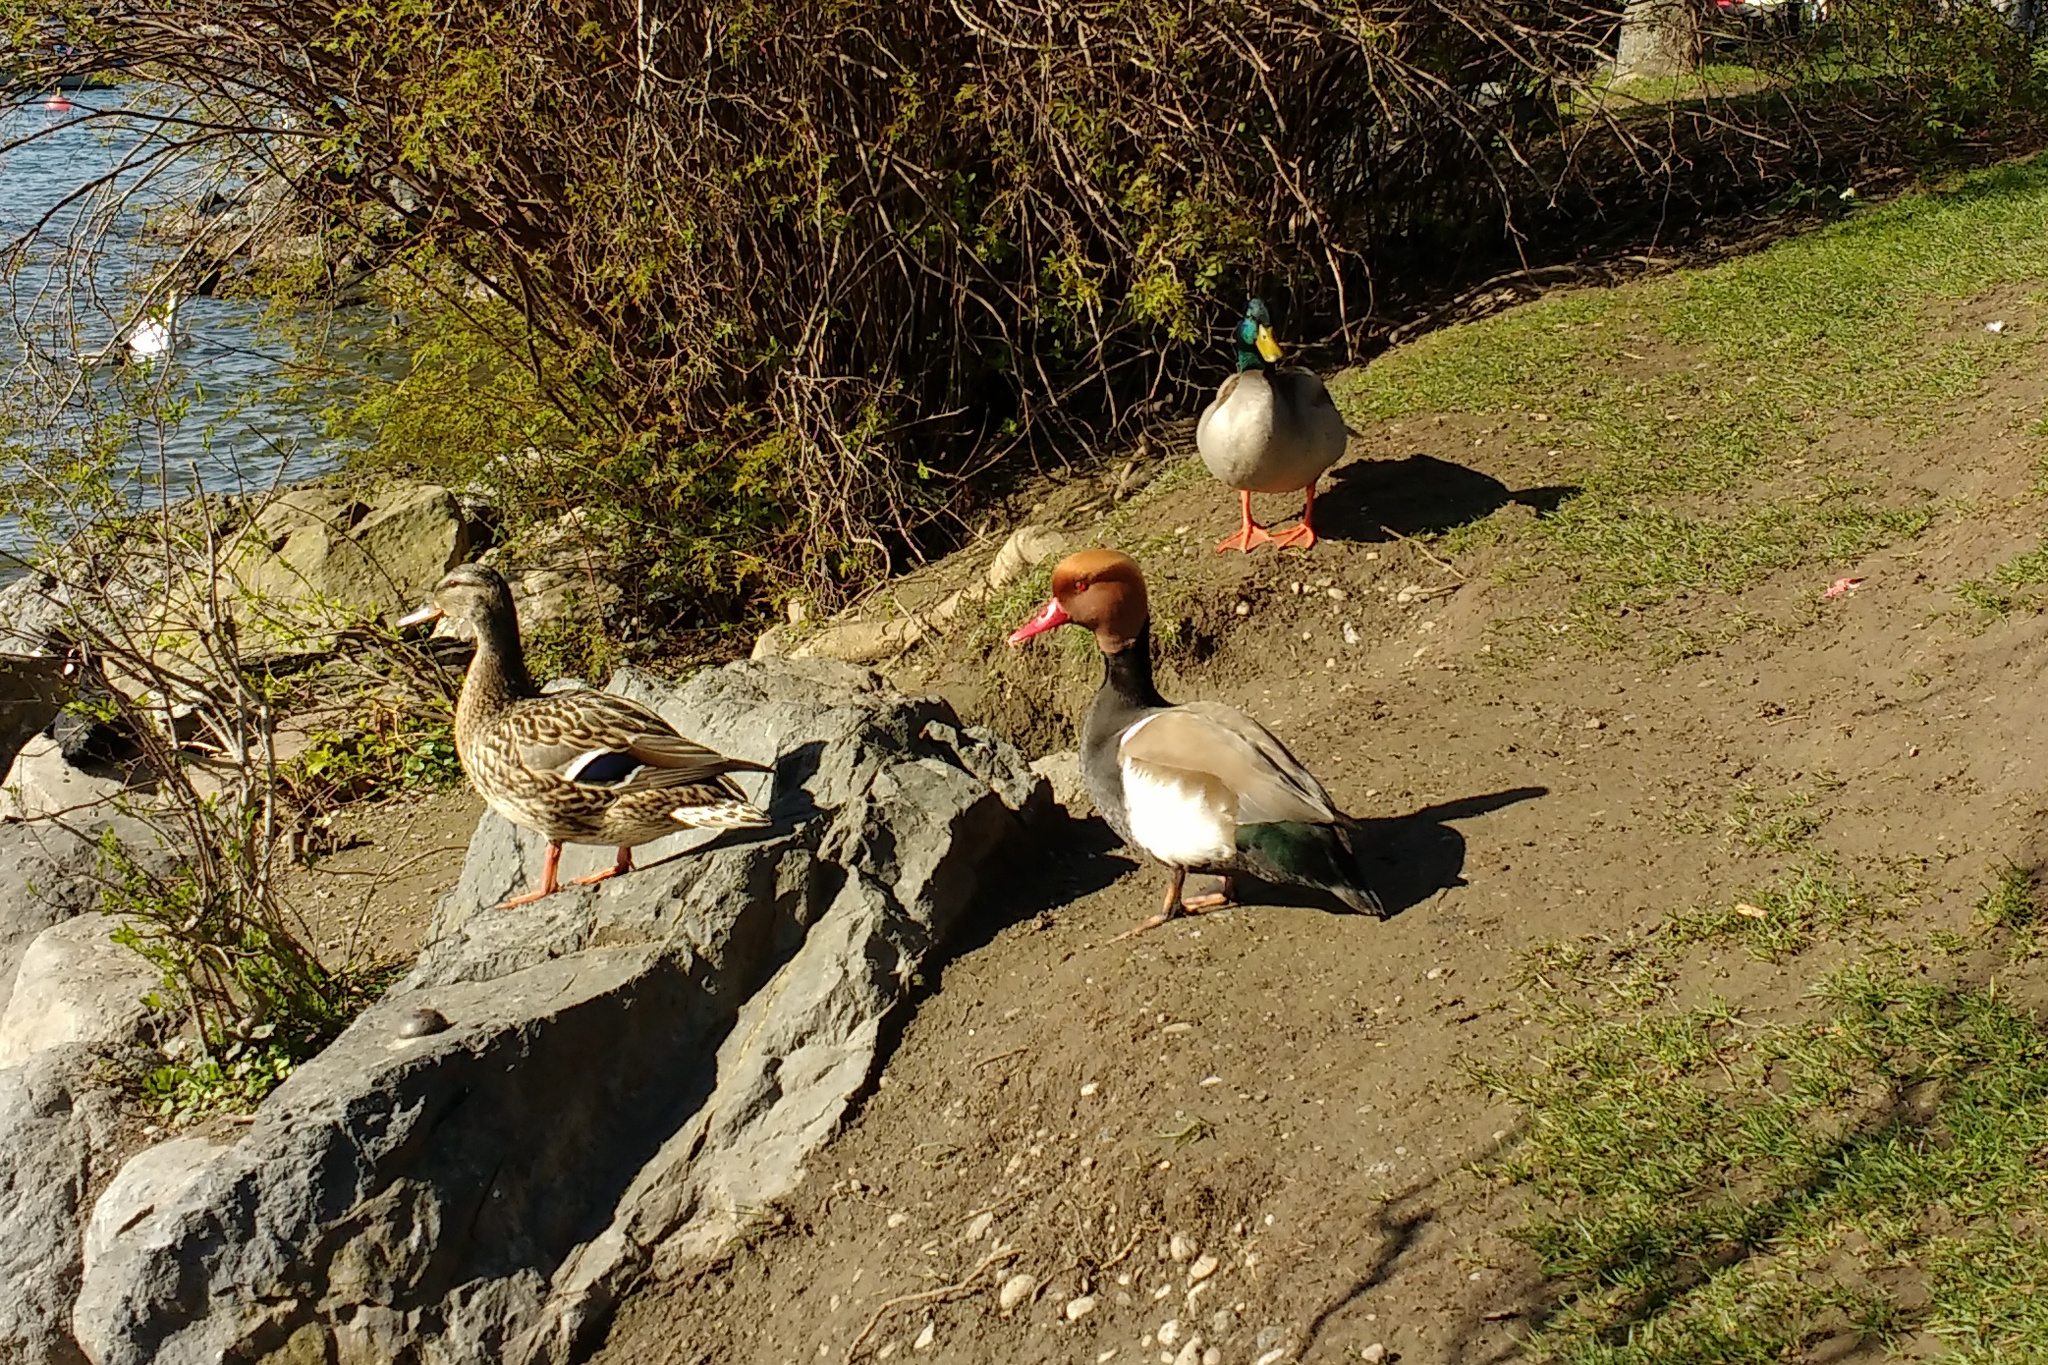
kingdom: Animalia
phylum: Chordata
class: Aves
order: Anseriformes
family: Anatidae
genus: Netta
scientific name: Netta rufina
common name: Red-crested pochard
